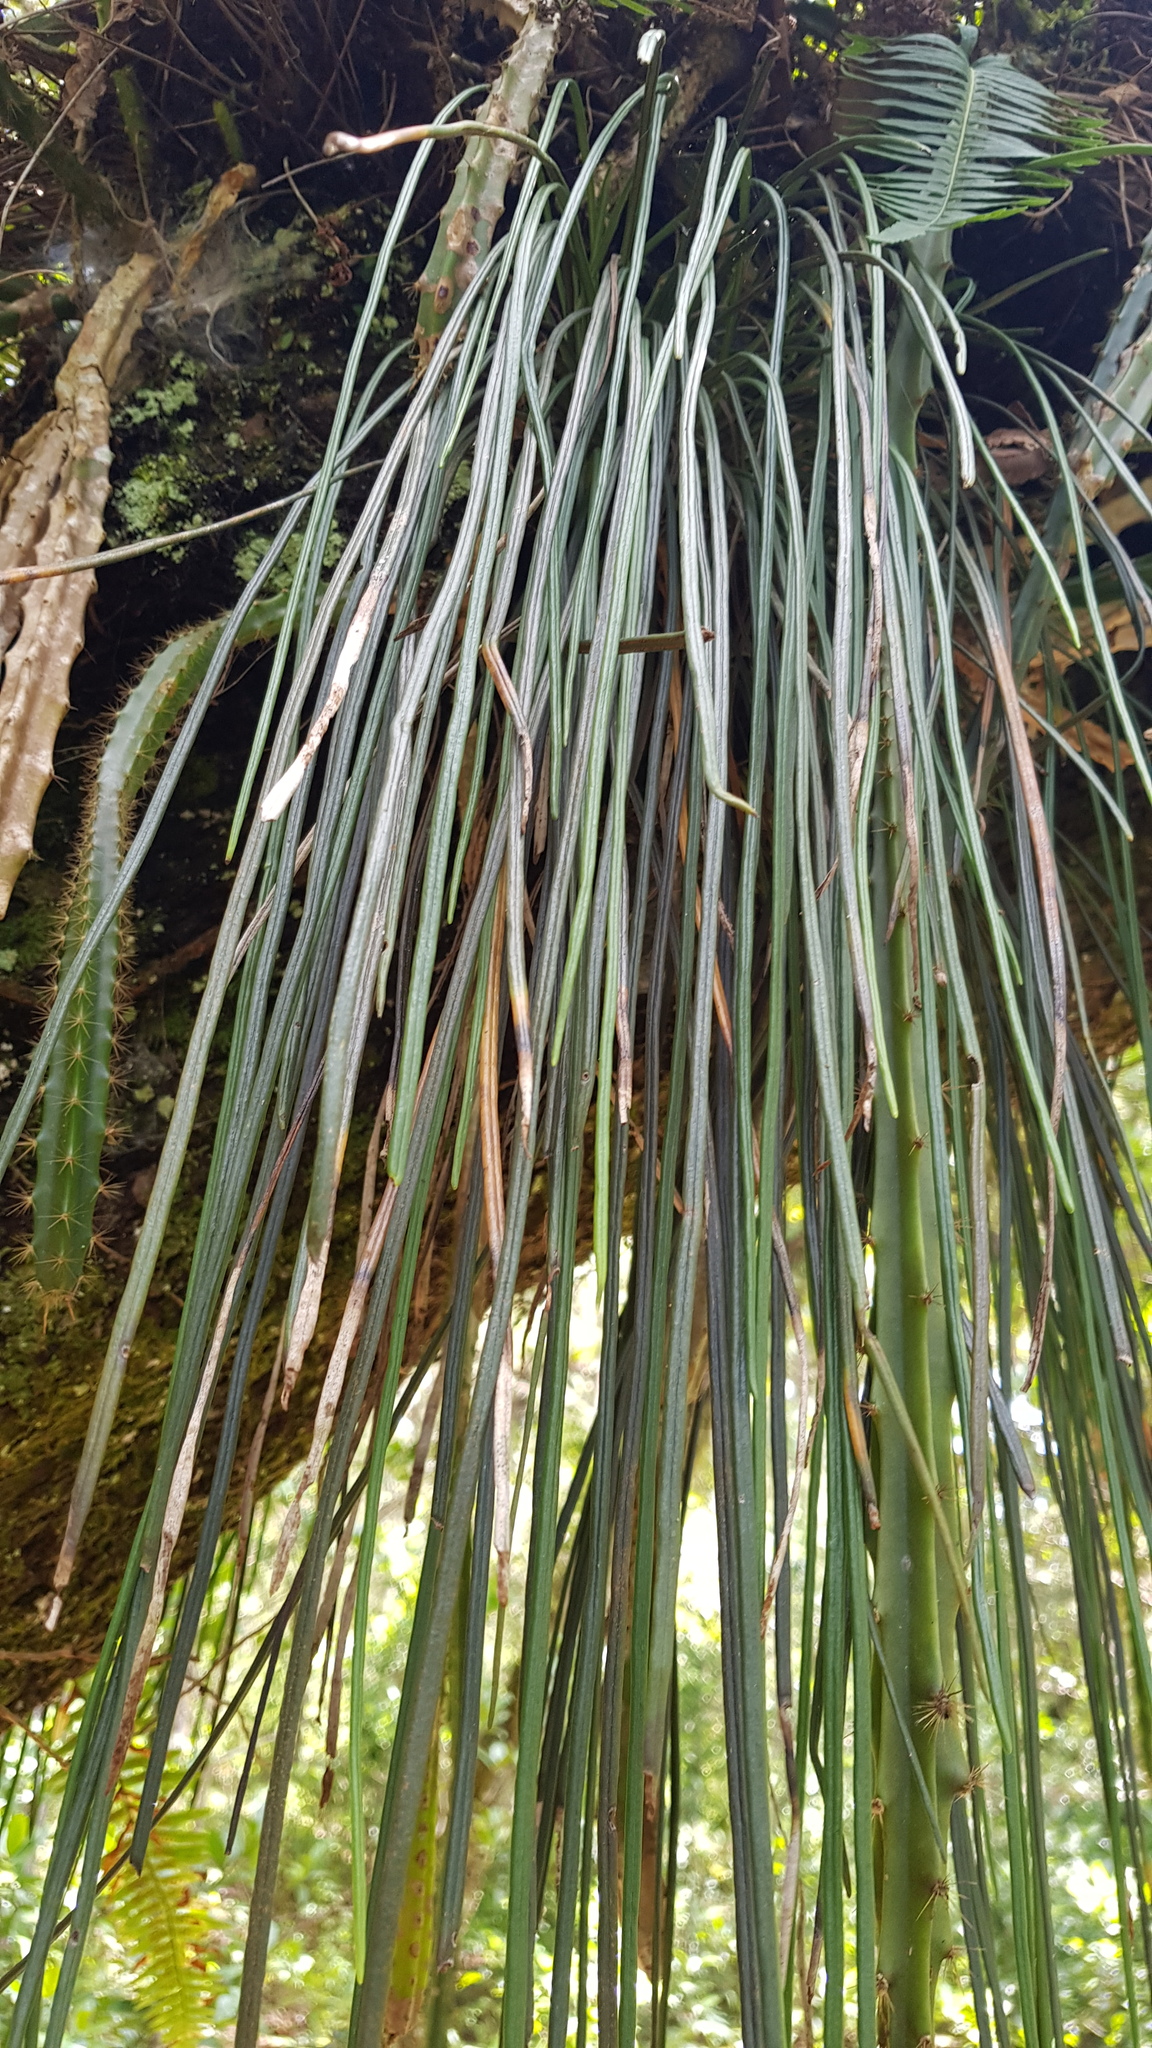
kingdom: Plantae
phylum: Tracheophyta
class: Polypodiopsida
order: Polypodiales
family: Pteridaceae
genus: Vittaria
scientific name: Vittaria graminifolia
